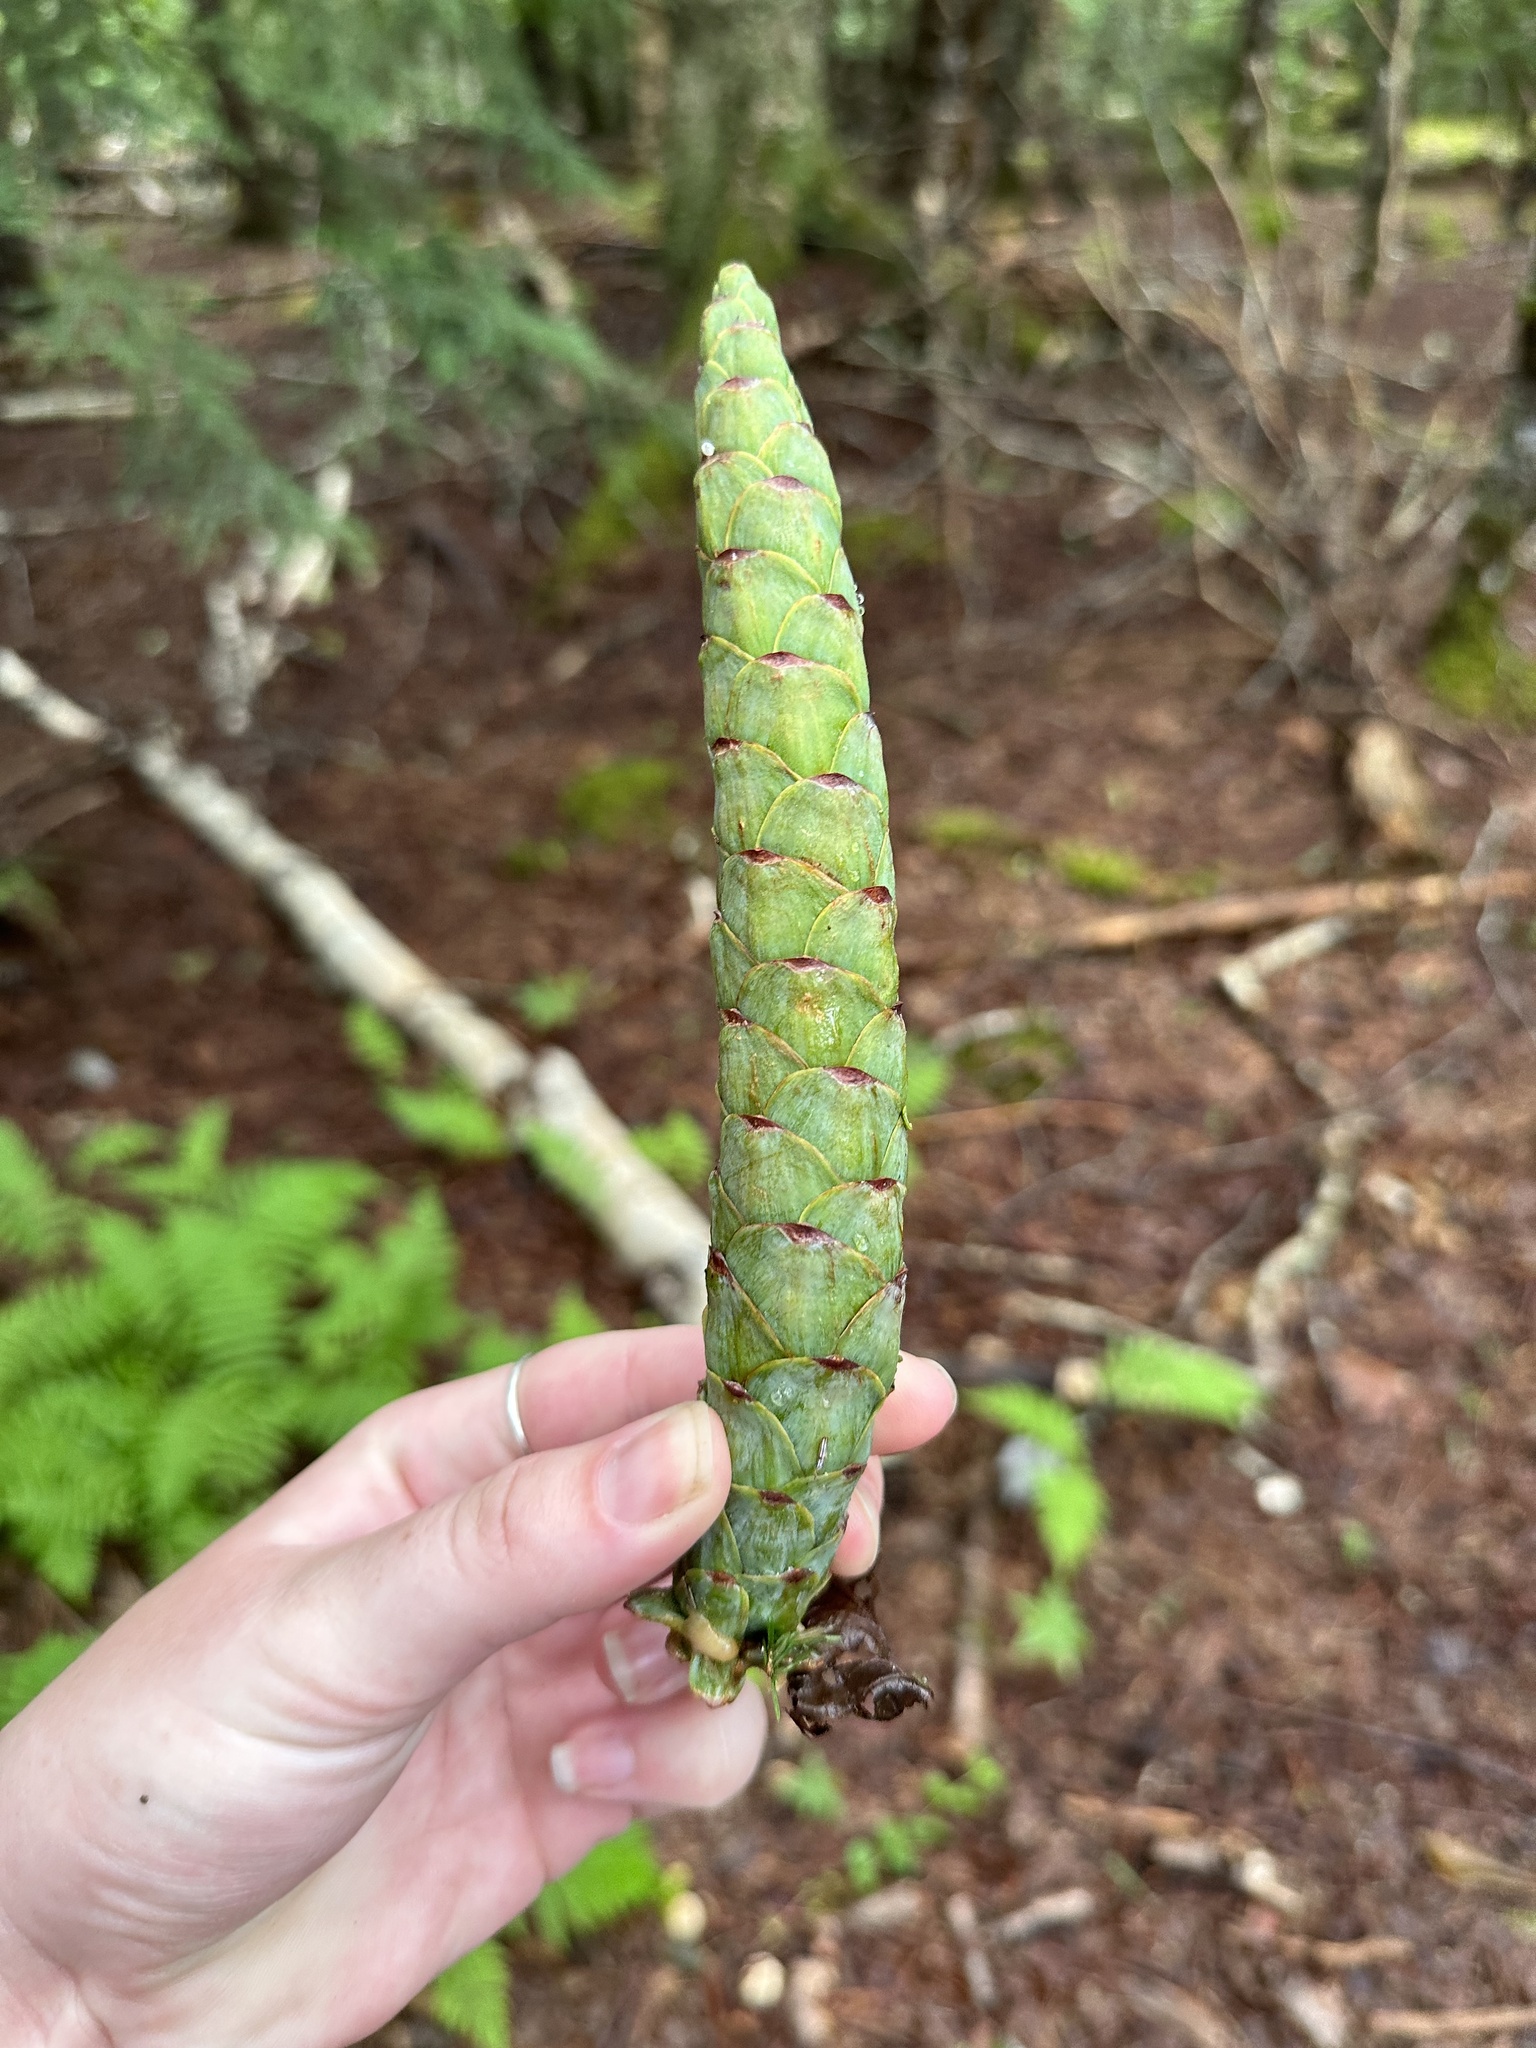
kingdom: Plantae
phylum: Tracheophyta
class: Pinopsida
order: Pinales
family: Pinaceae
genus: Pinus
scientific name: Pinus strobus
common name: Weymouth pine
